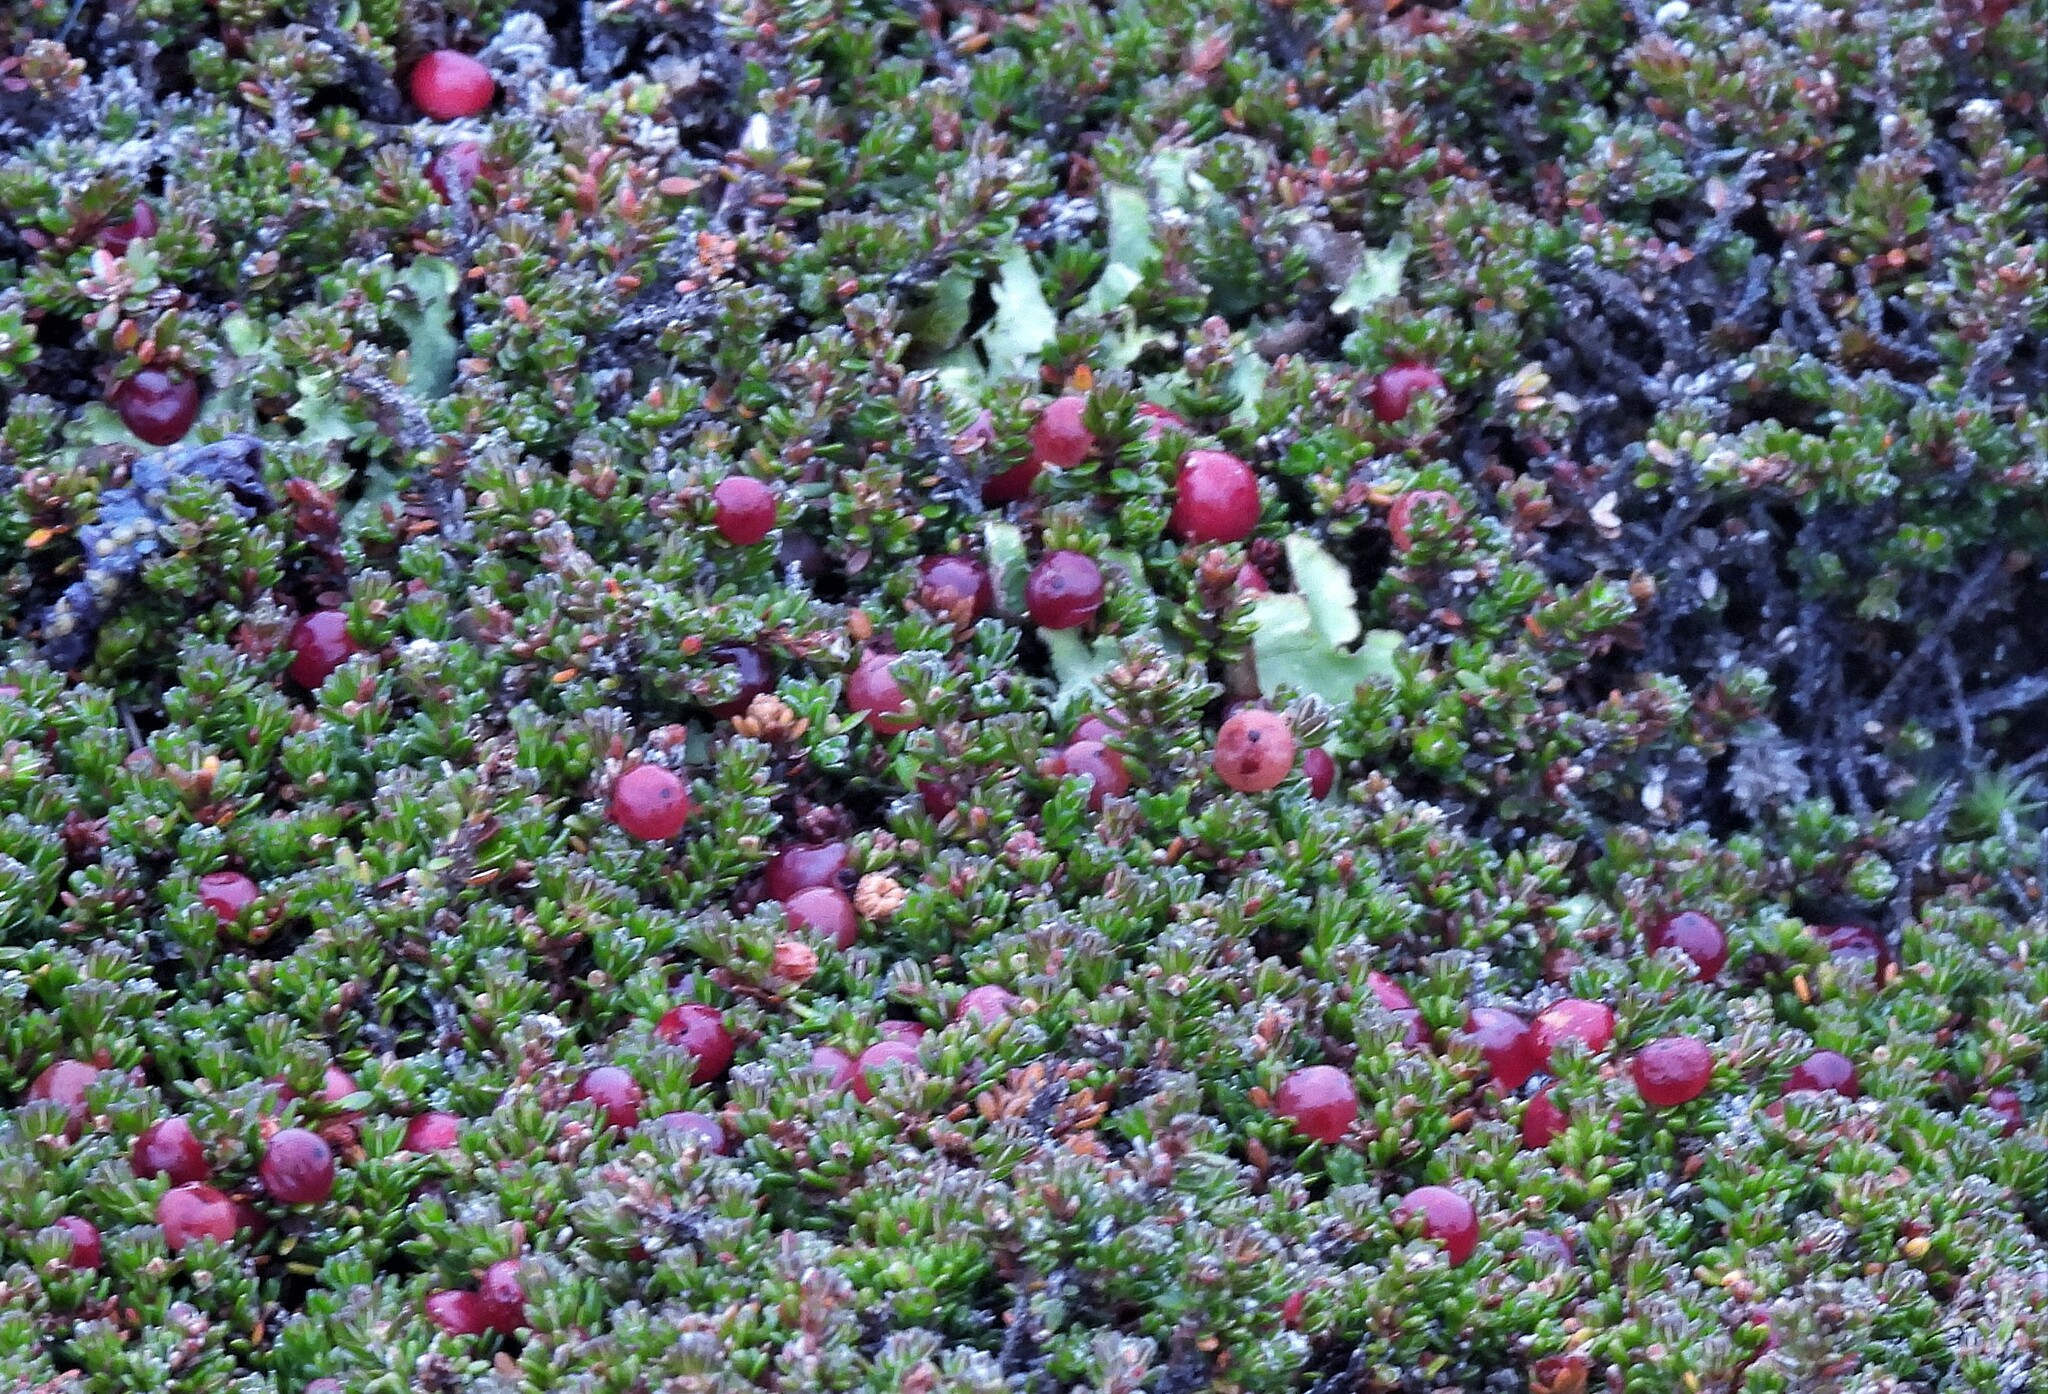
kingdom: Plantae
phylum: Tracheophyta
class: Magnoliopsida
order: Ericales
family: Ericaceae
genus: Empetrum
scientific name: Empetrum rubrum
